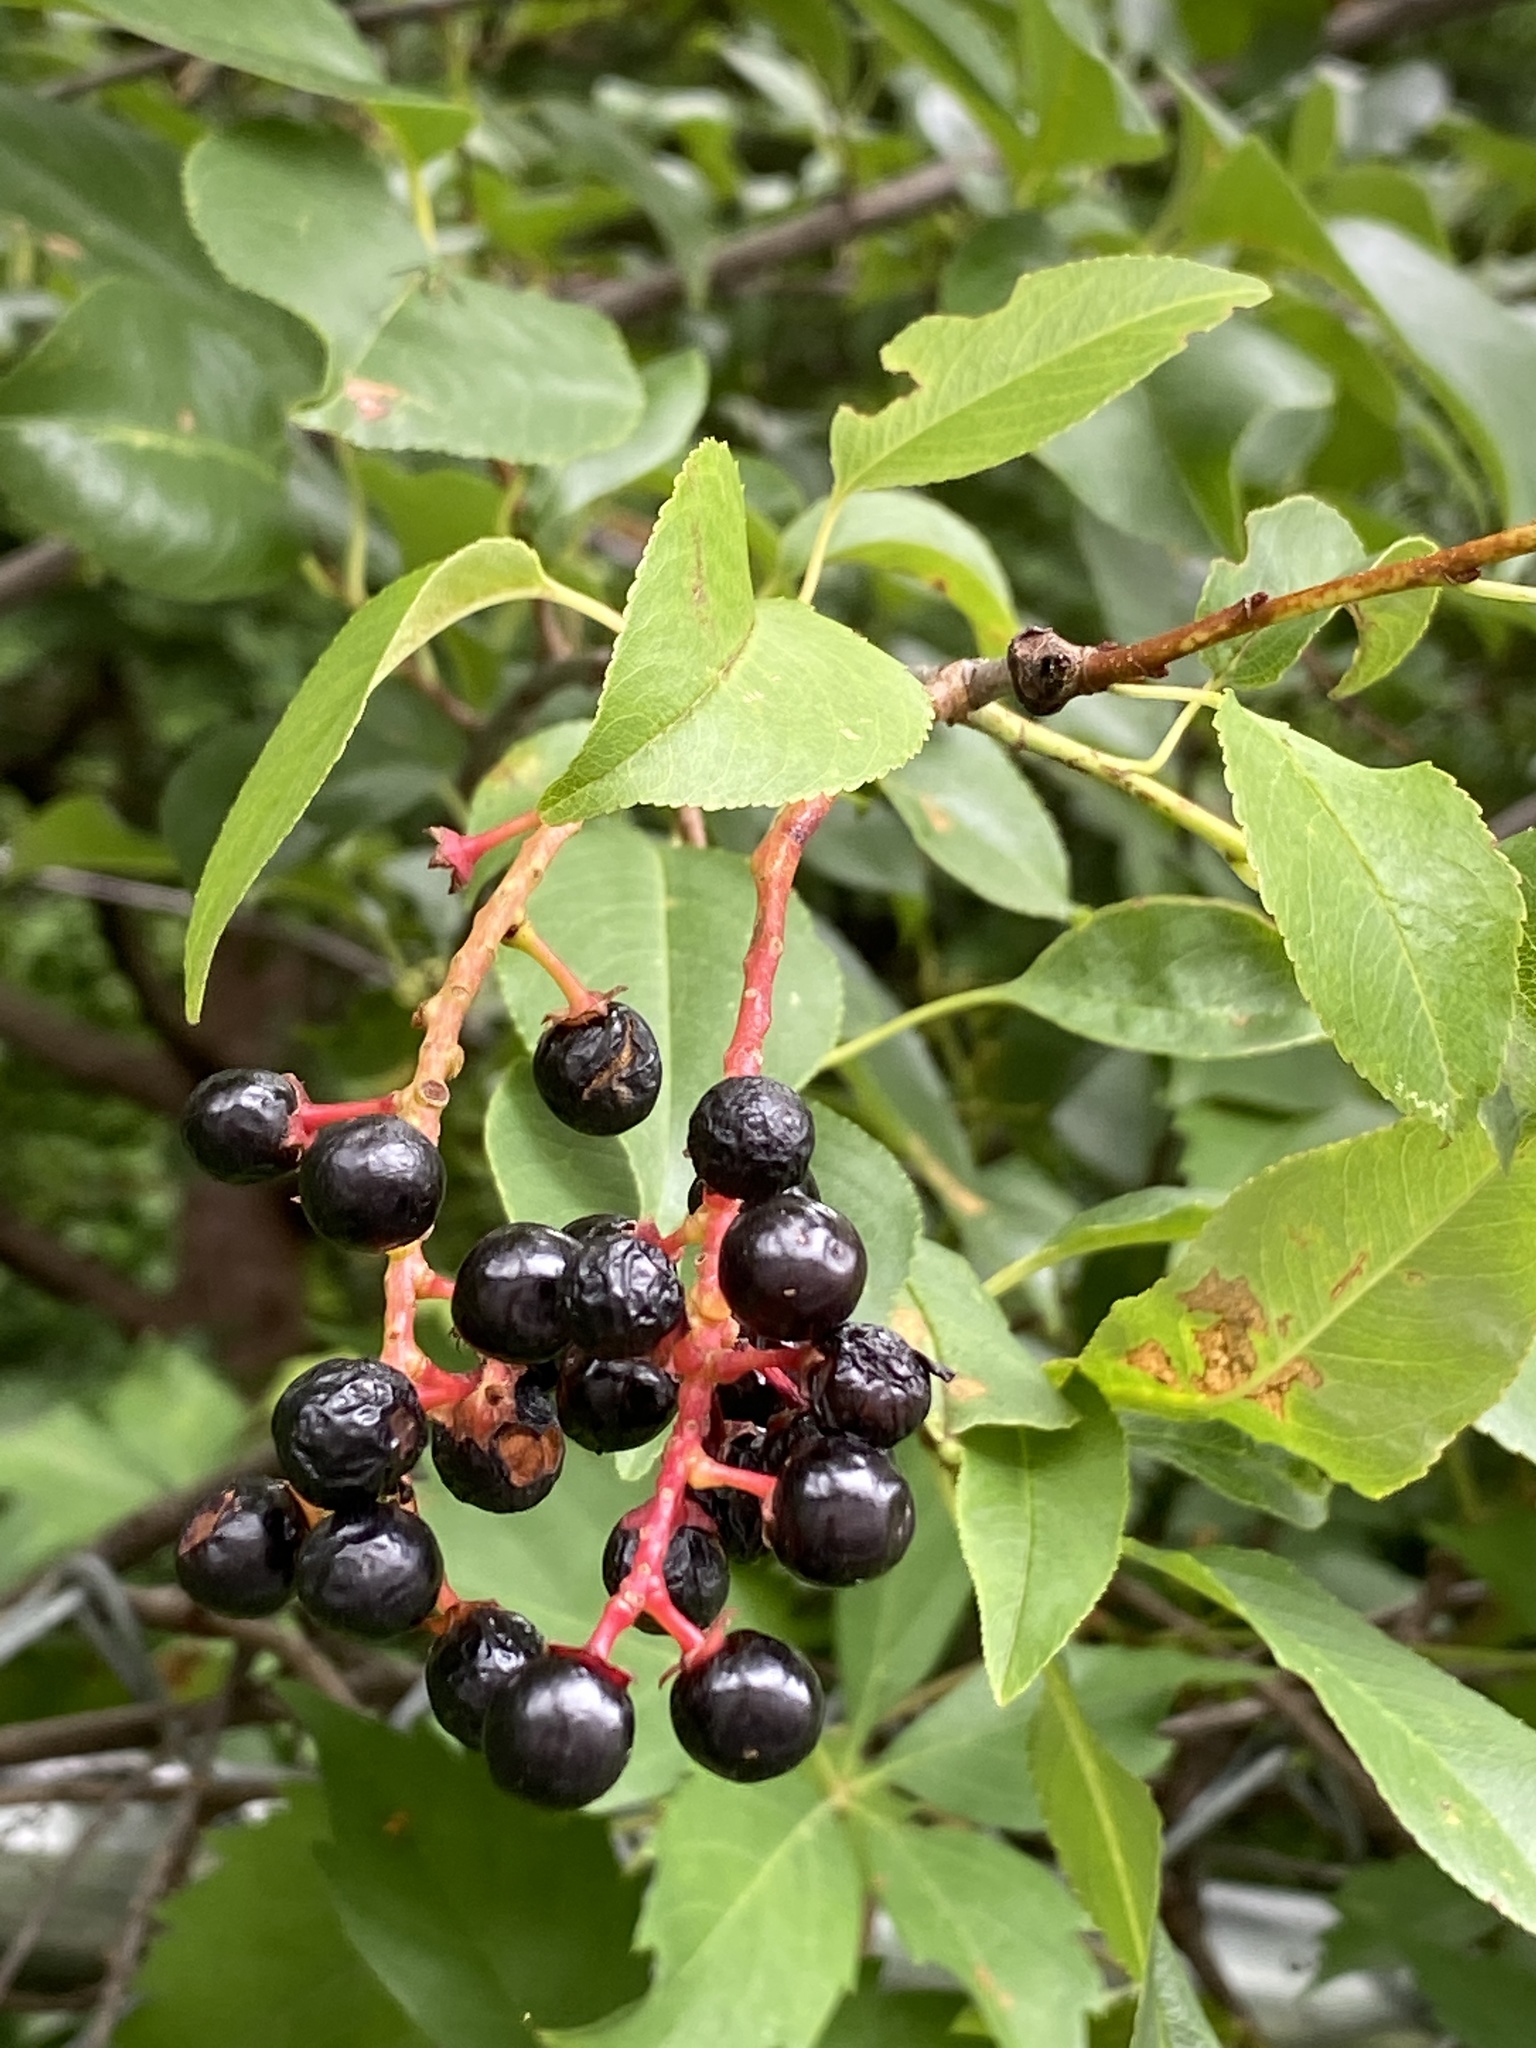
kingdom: Plantae
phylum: Tracheophyta
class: Magnoliopsida
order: Rosales
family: Rosaceae
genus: Prunus
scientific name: Prunus serotina
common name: Black cherry
